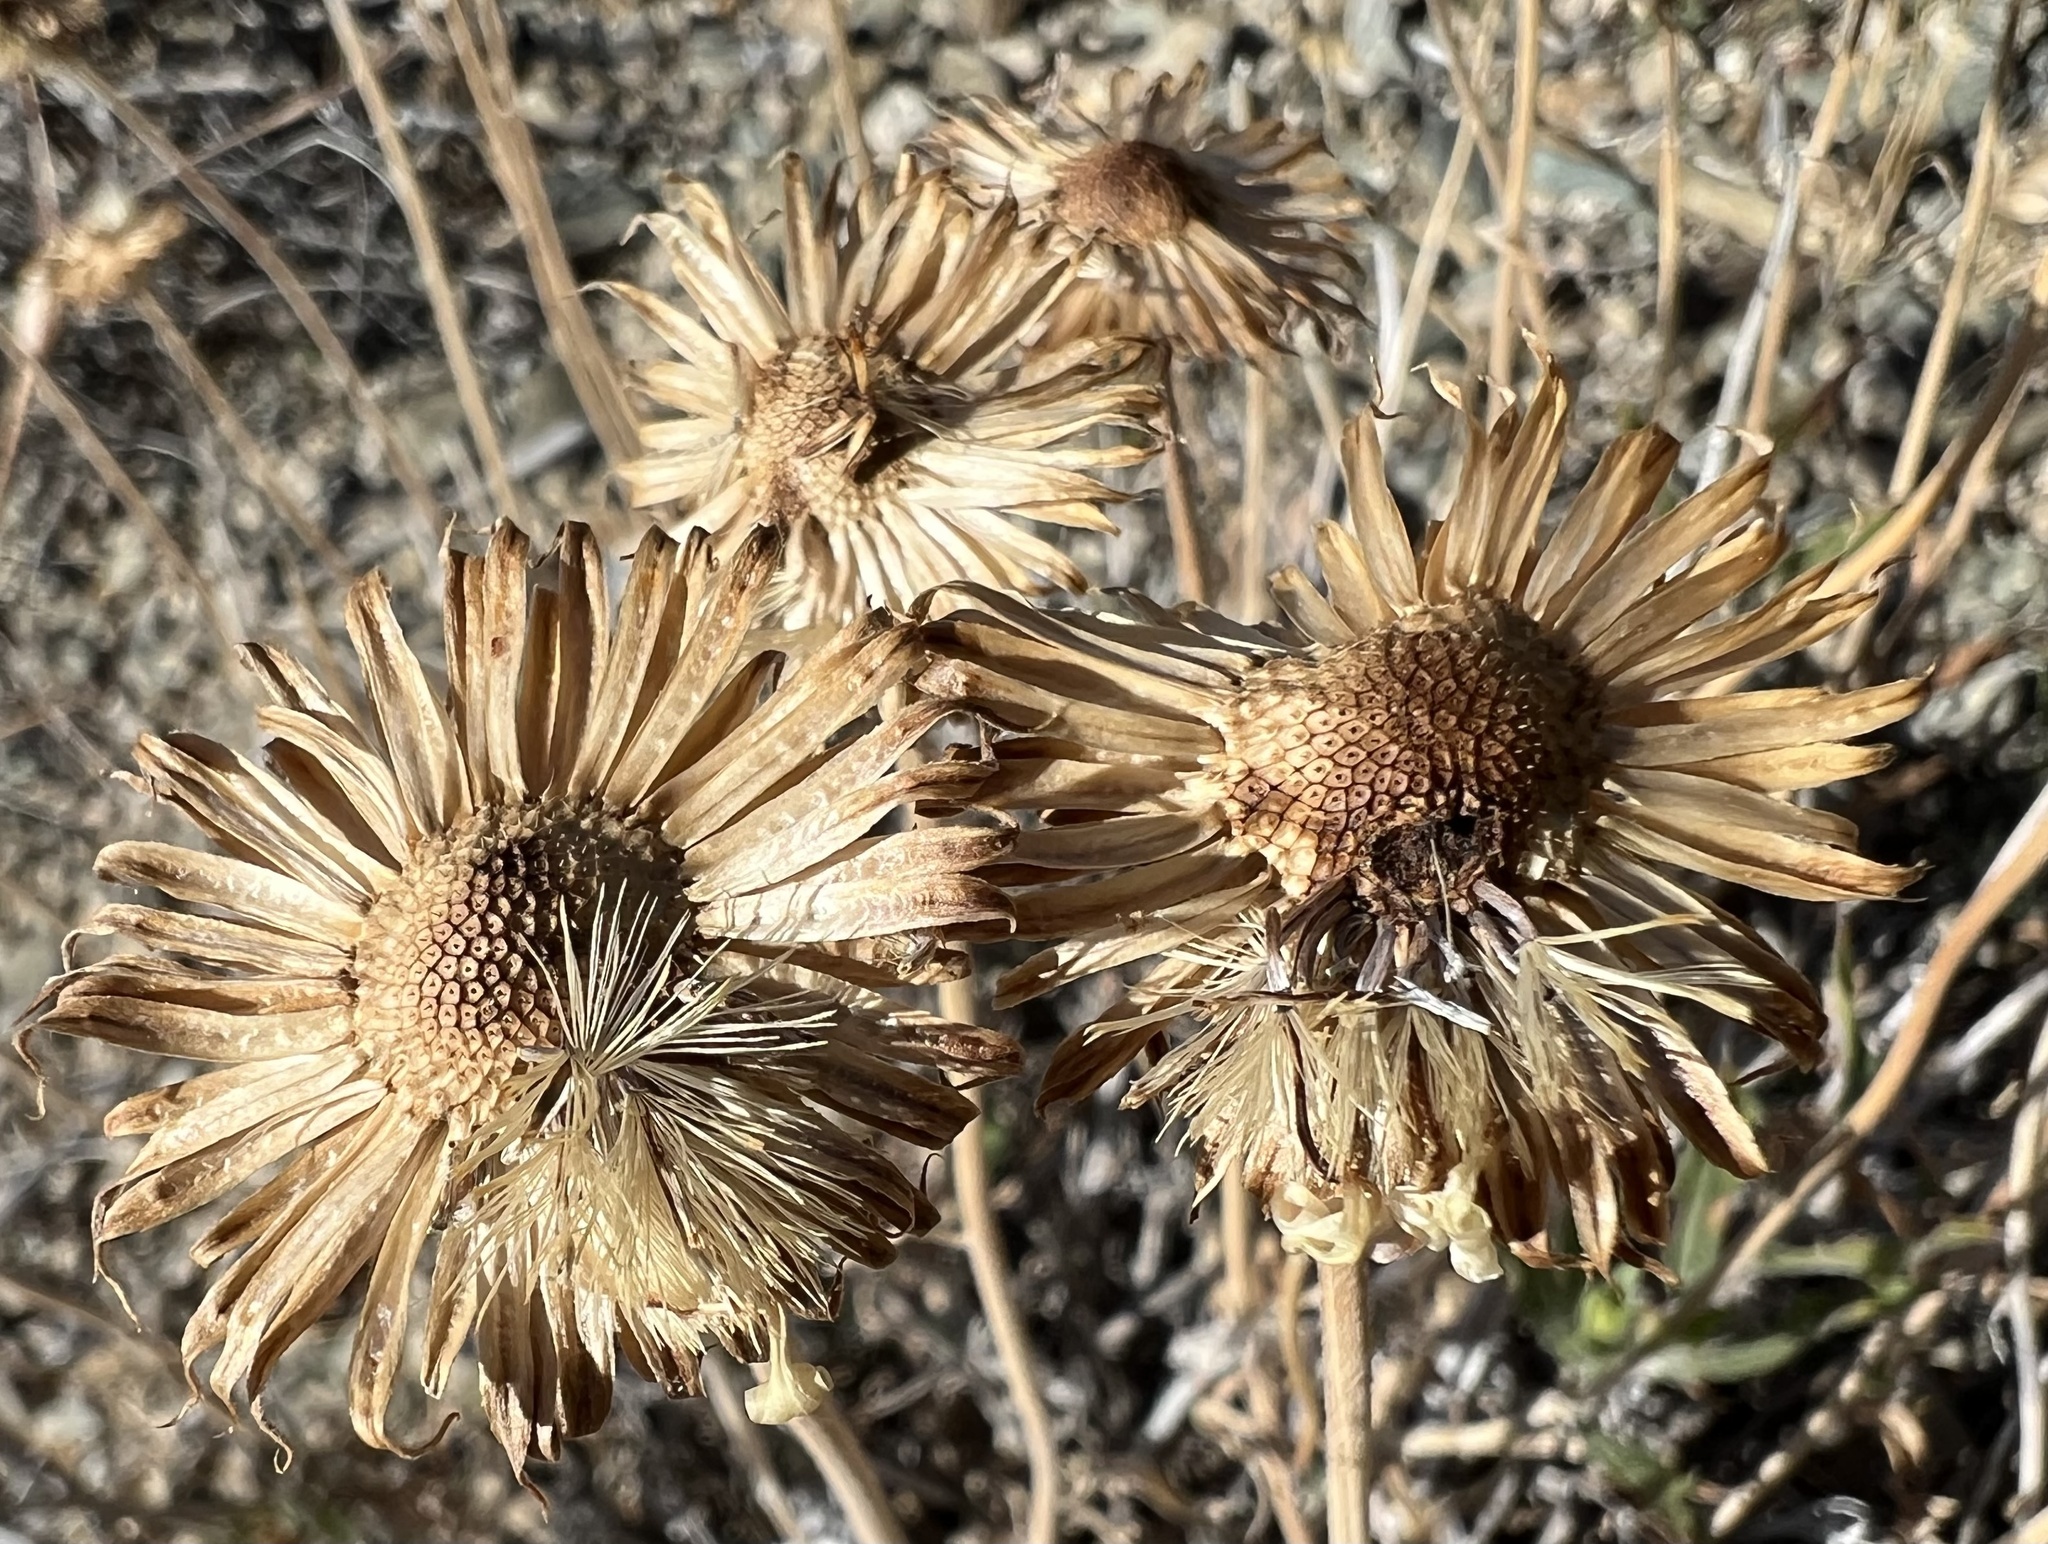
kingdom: Plantae
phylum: Tracheophyta
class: Magnoliopsida
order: Asterales
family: Asteraceae
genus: Xylorhiza
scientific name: Xylorhiza tortifolia
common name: Hurt-leaf woody-aster
